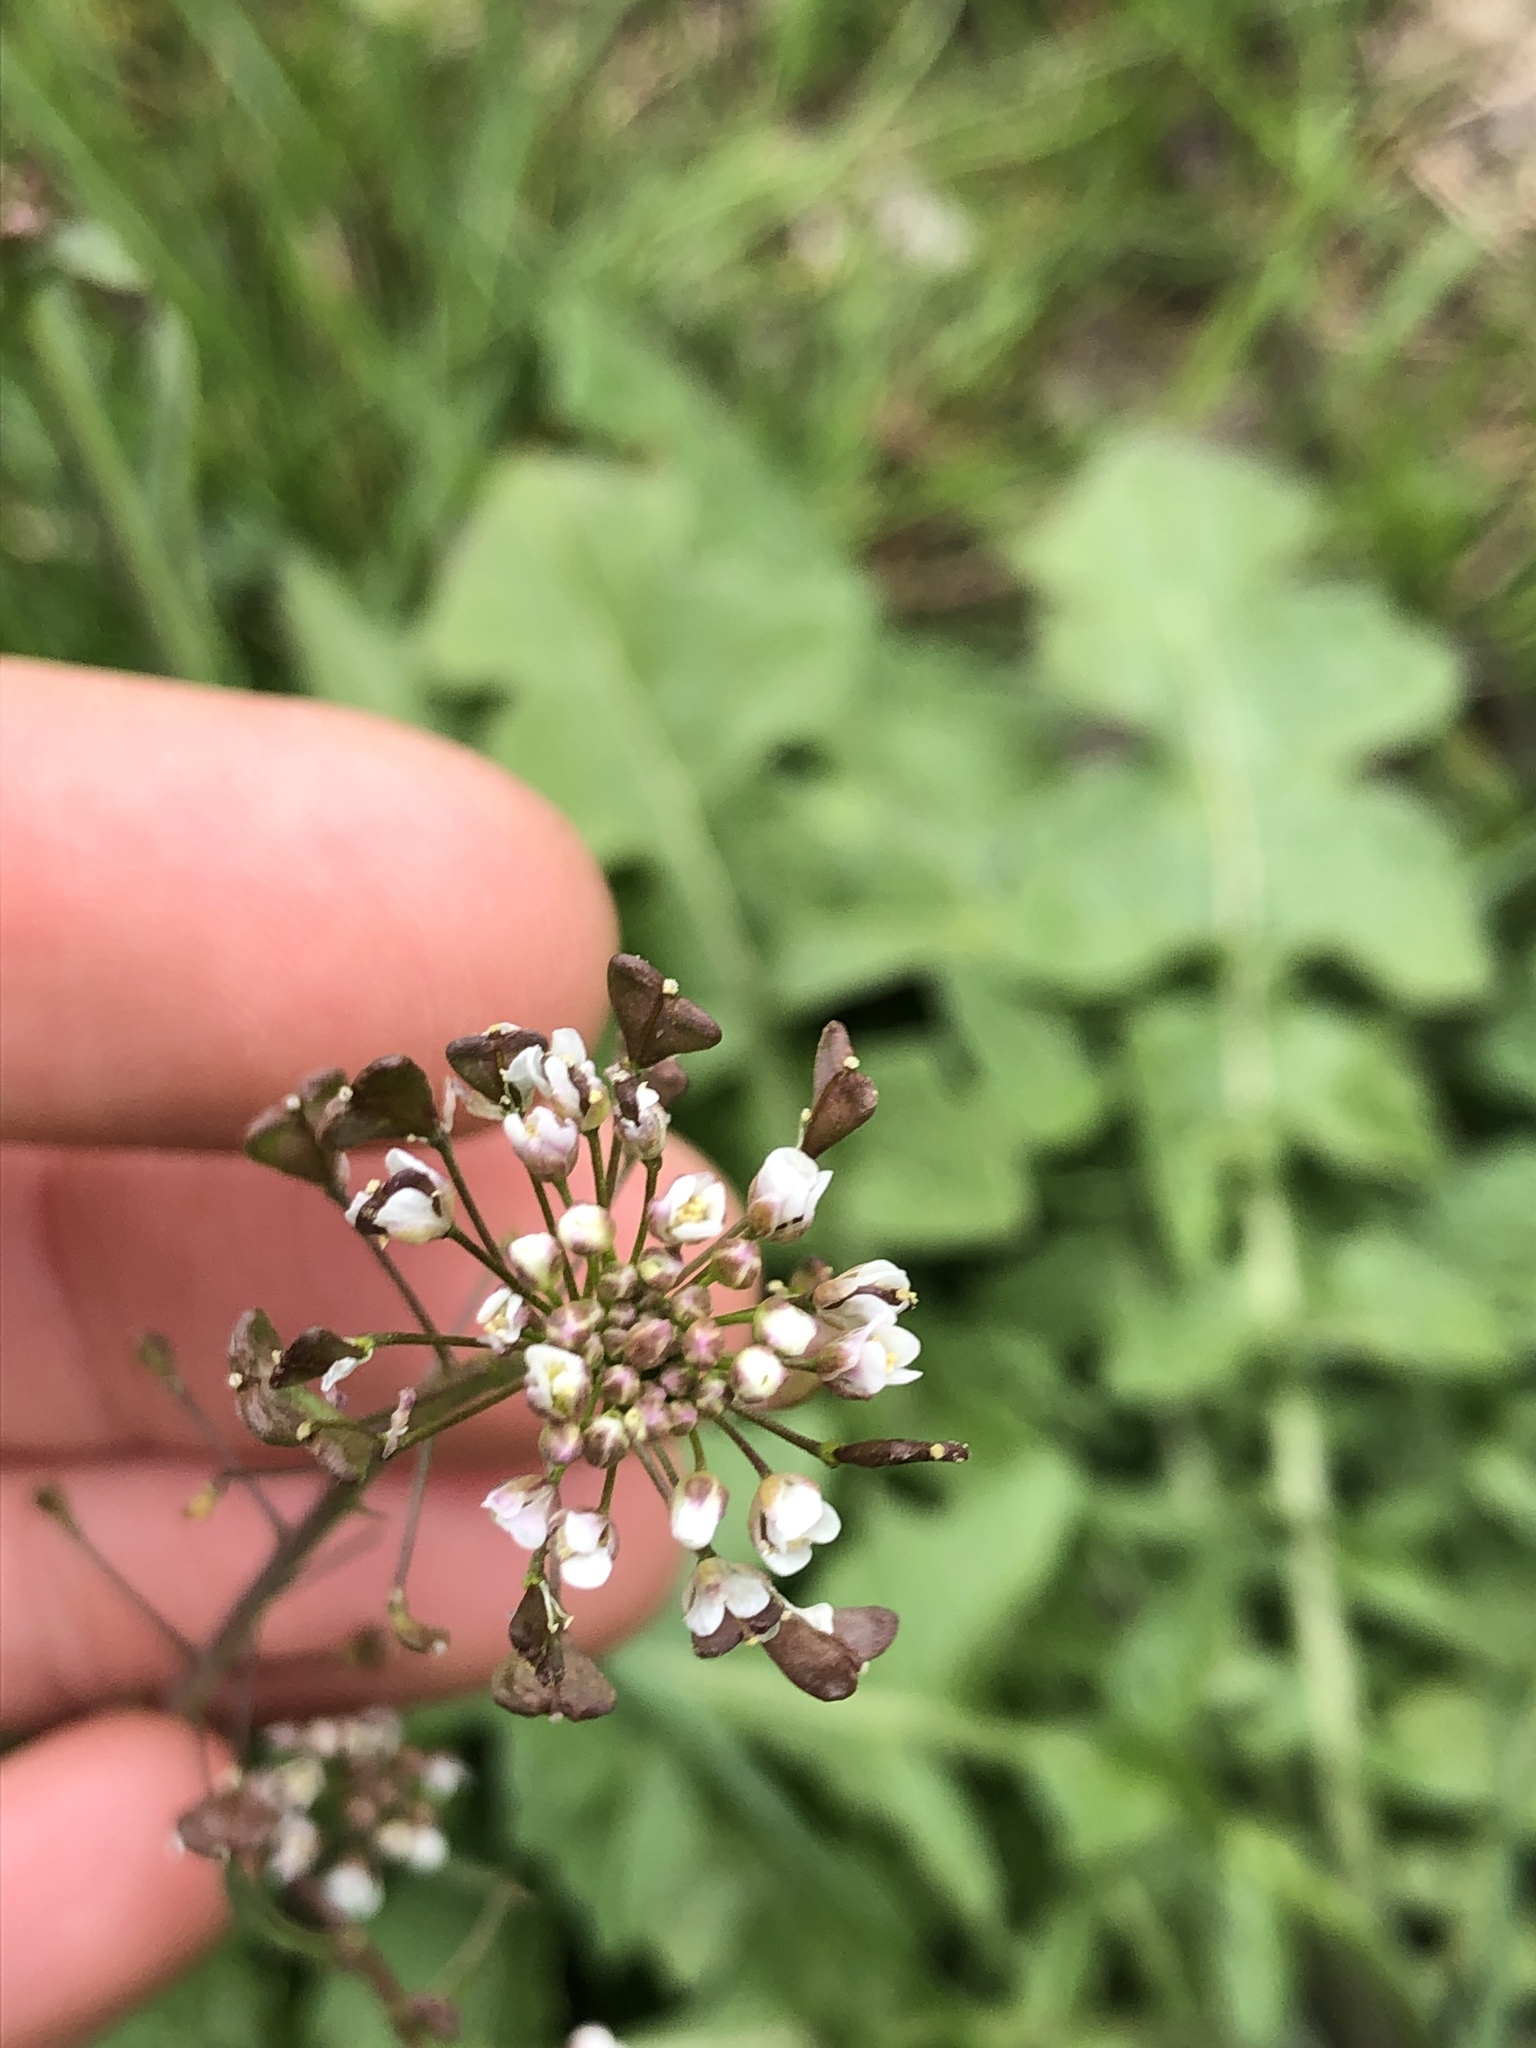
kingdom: Plantae
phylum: Tracheophyta
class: Magnoliopsida
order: Brassicales
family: Brassicaceae
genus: Capsella
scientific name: Capsella bursa-pastoris
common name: Shepherd's purse
